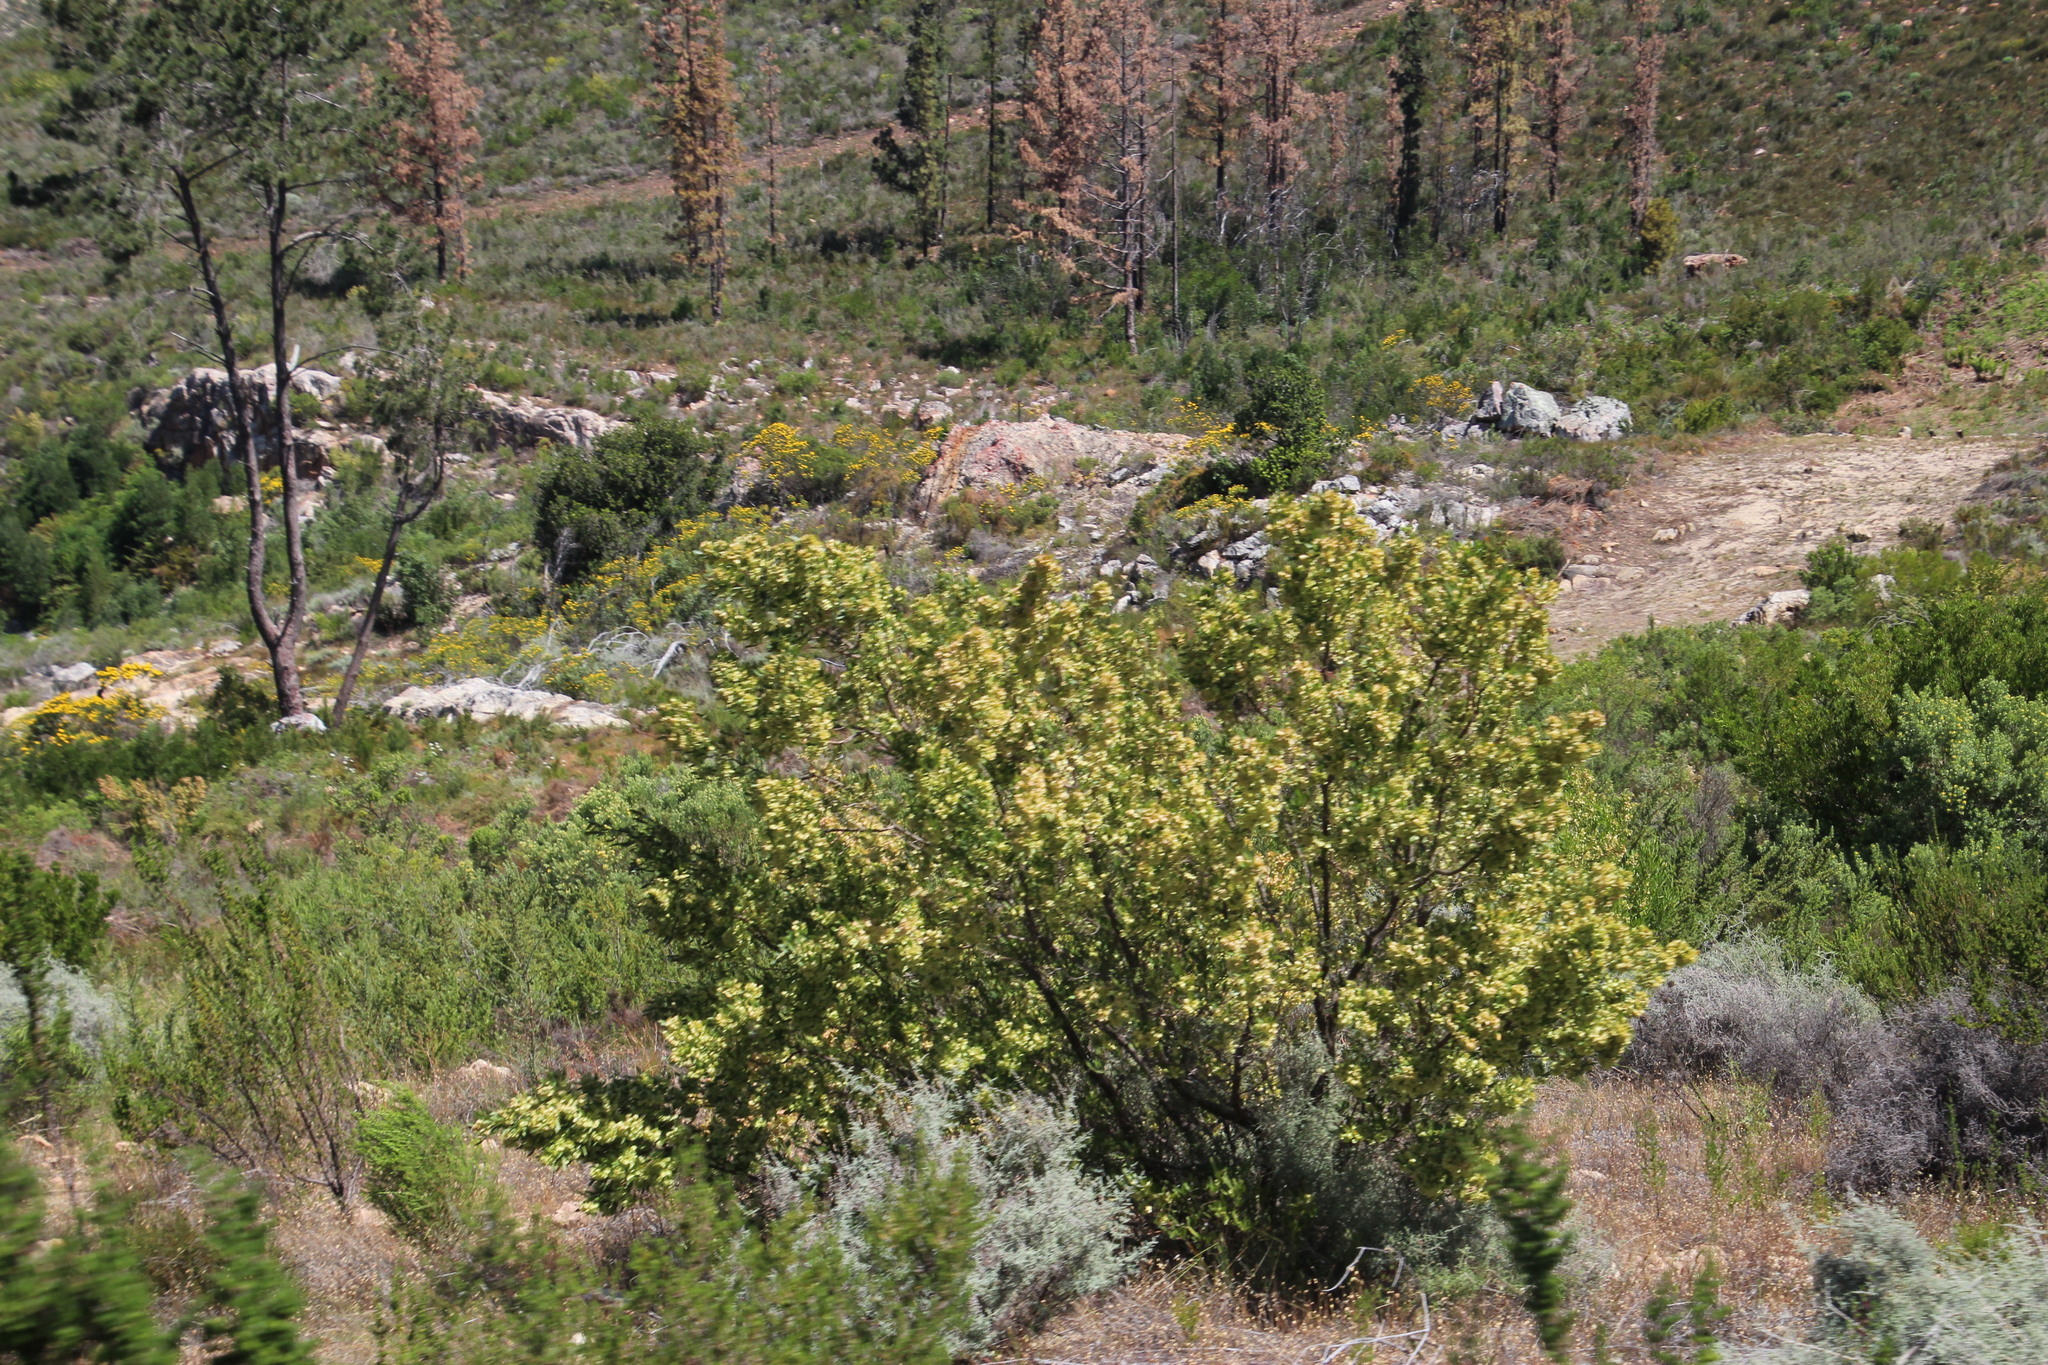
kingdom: Plantae
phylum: Tracheophyta
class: Magnoliopsida
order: Sapindales
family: Sapindaceae
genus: Dodonaea
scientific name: Dodonaea viscosa
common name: Hopbush
